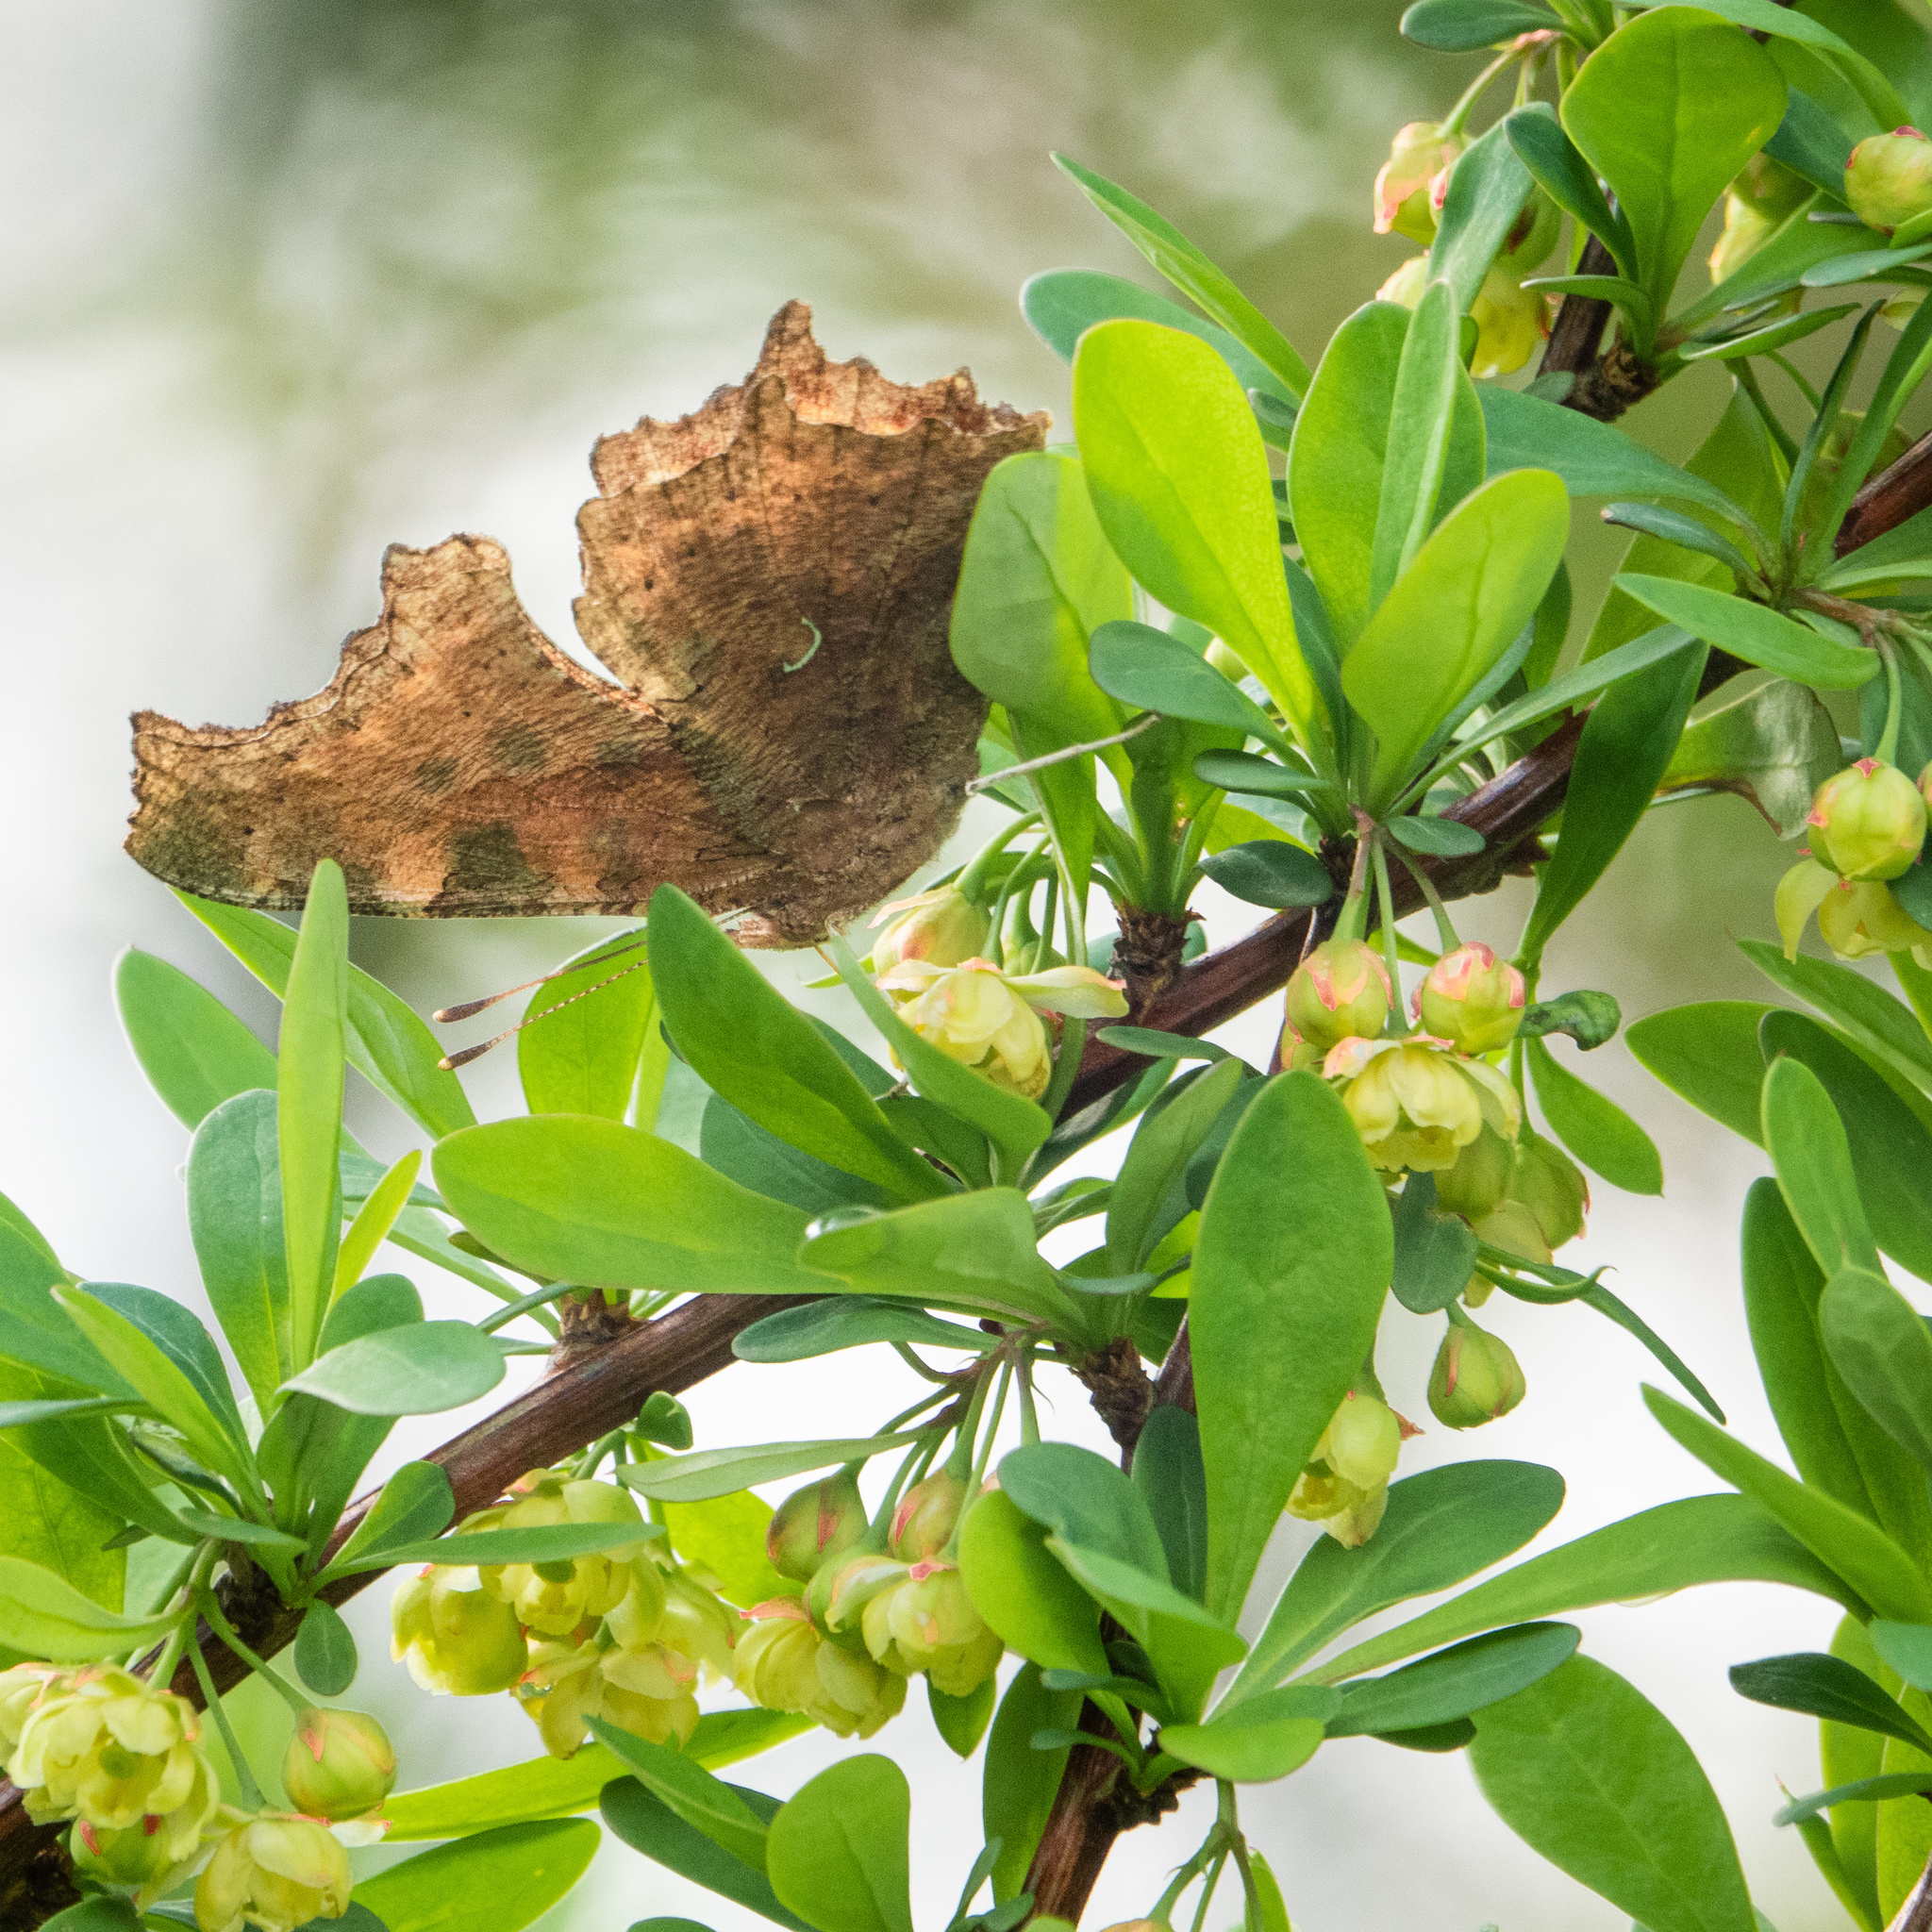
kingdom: Animalia
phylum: Arthropoda
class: Insecta
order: Lepidoptera
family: Nymphalidae
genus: Polygonia
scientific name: Polygonia comma
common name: Eastern comma
